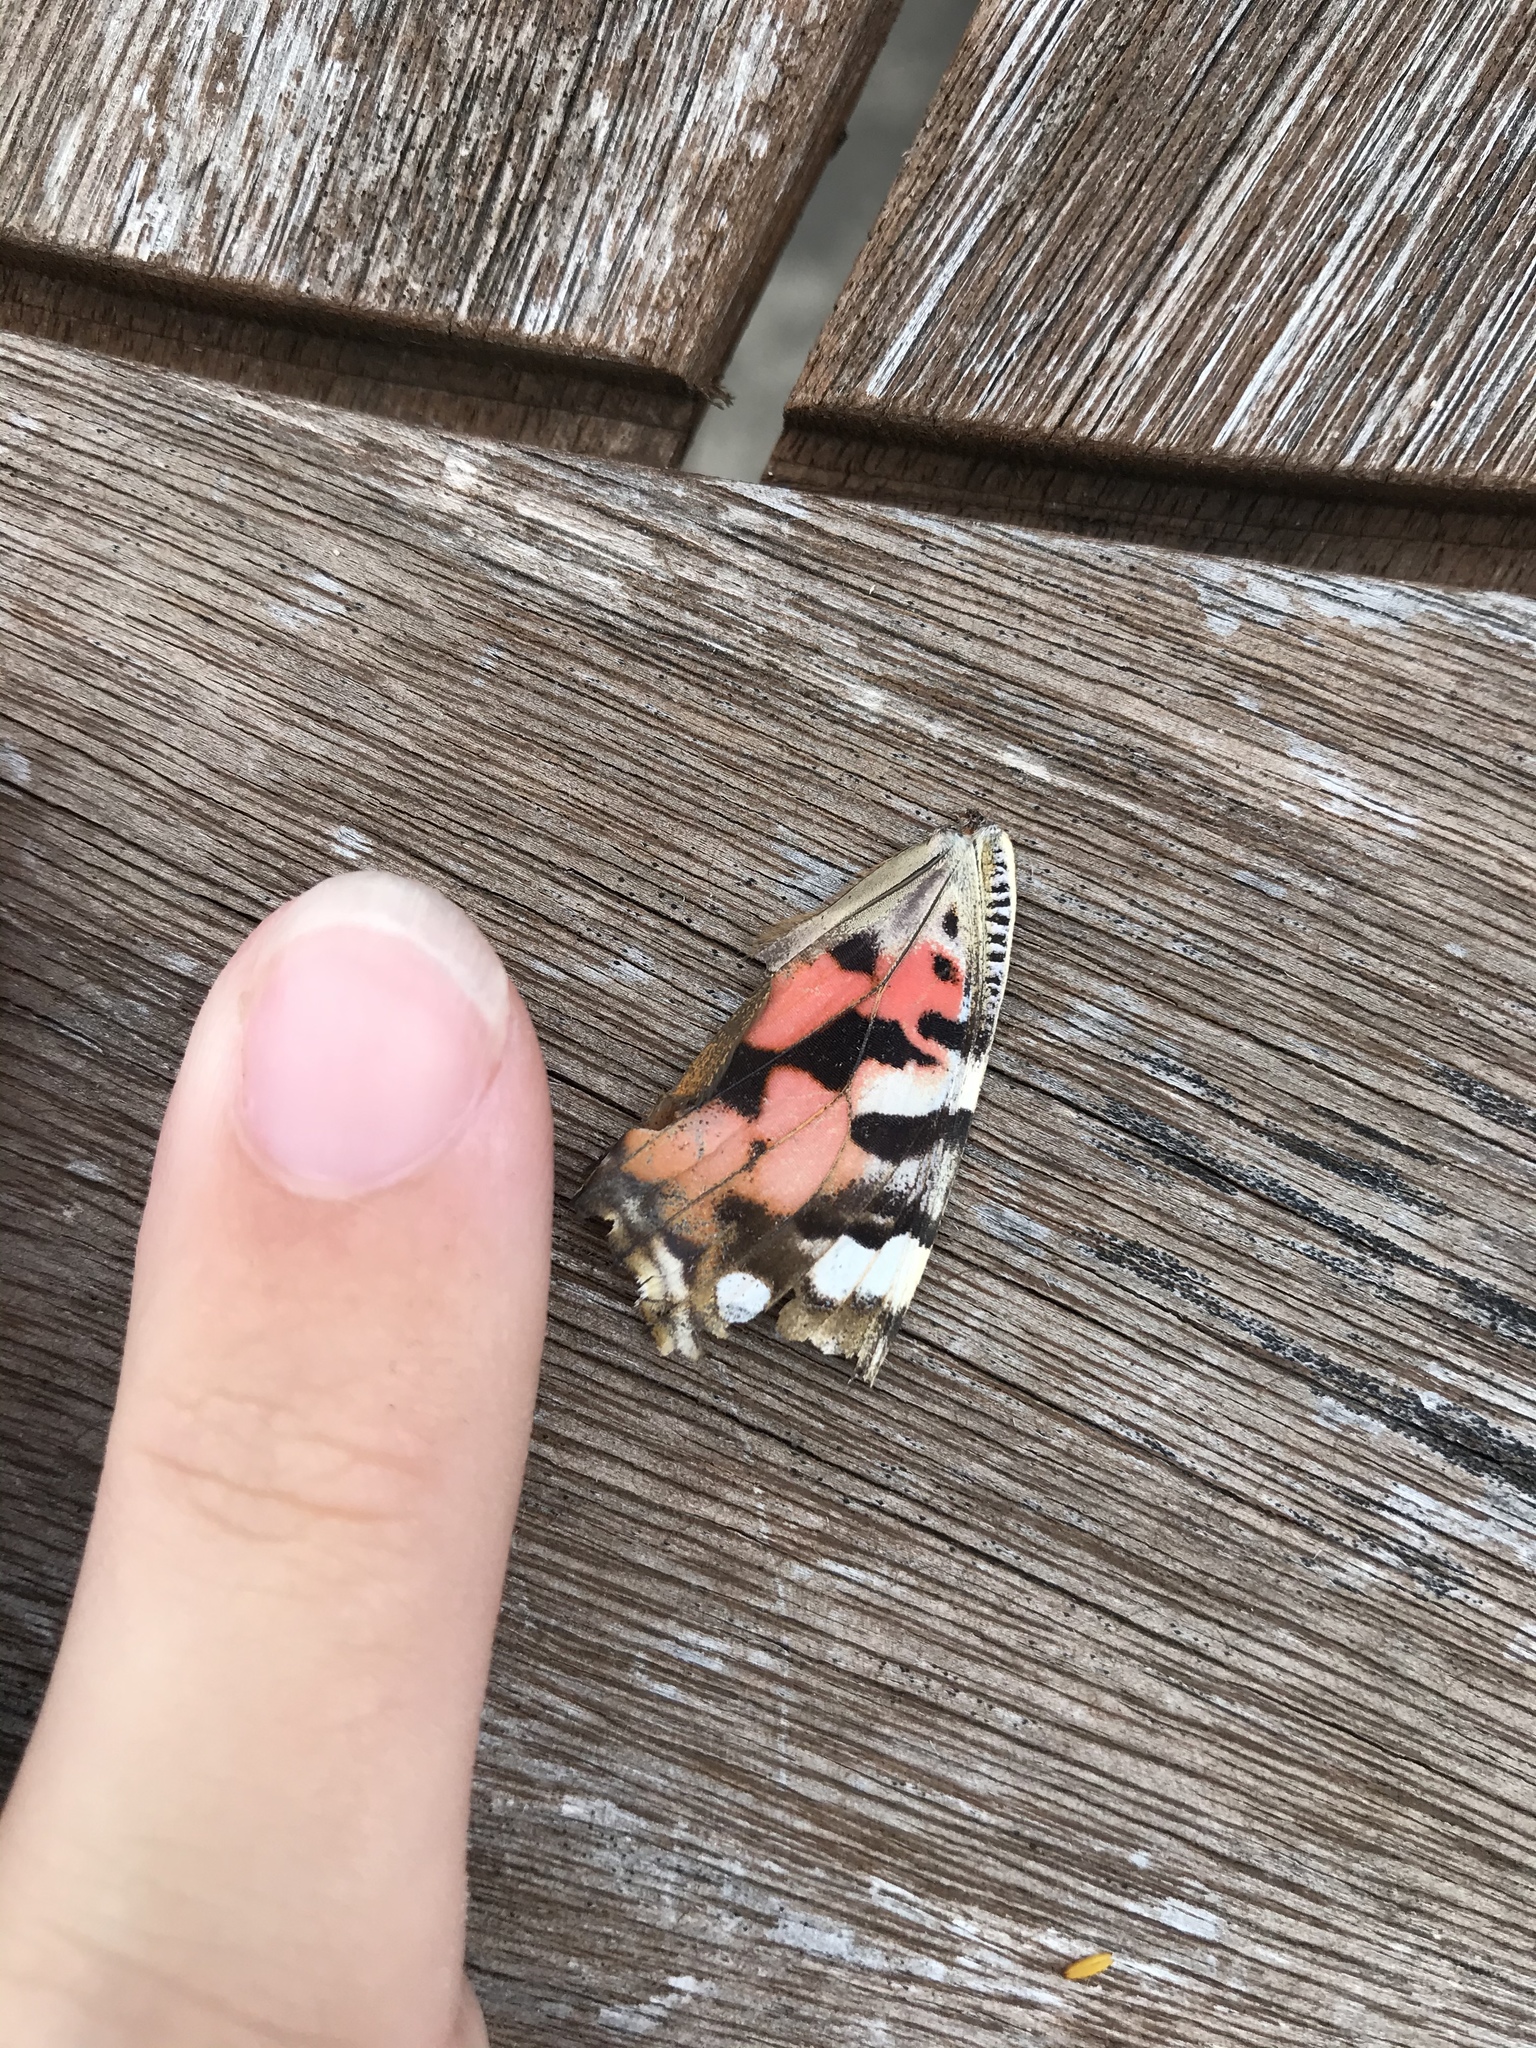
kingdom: Animalia
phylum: Arthropoda
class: Insecta
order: Lepidoptera
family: Nymphalidae
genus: Vanessa
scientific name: Vanessa cardui
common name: Painted lady
